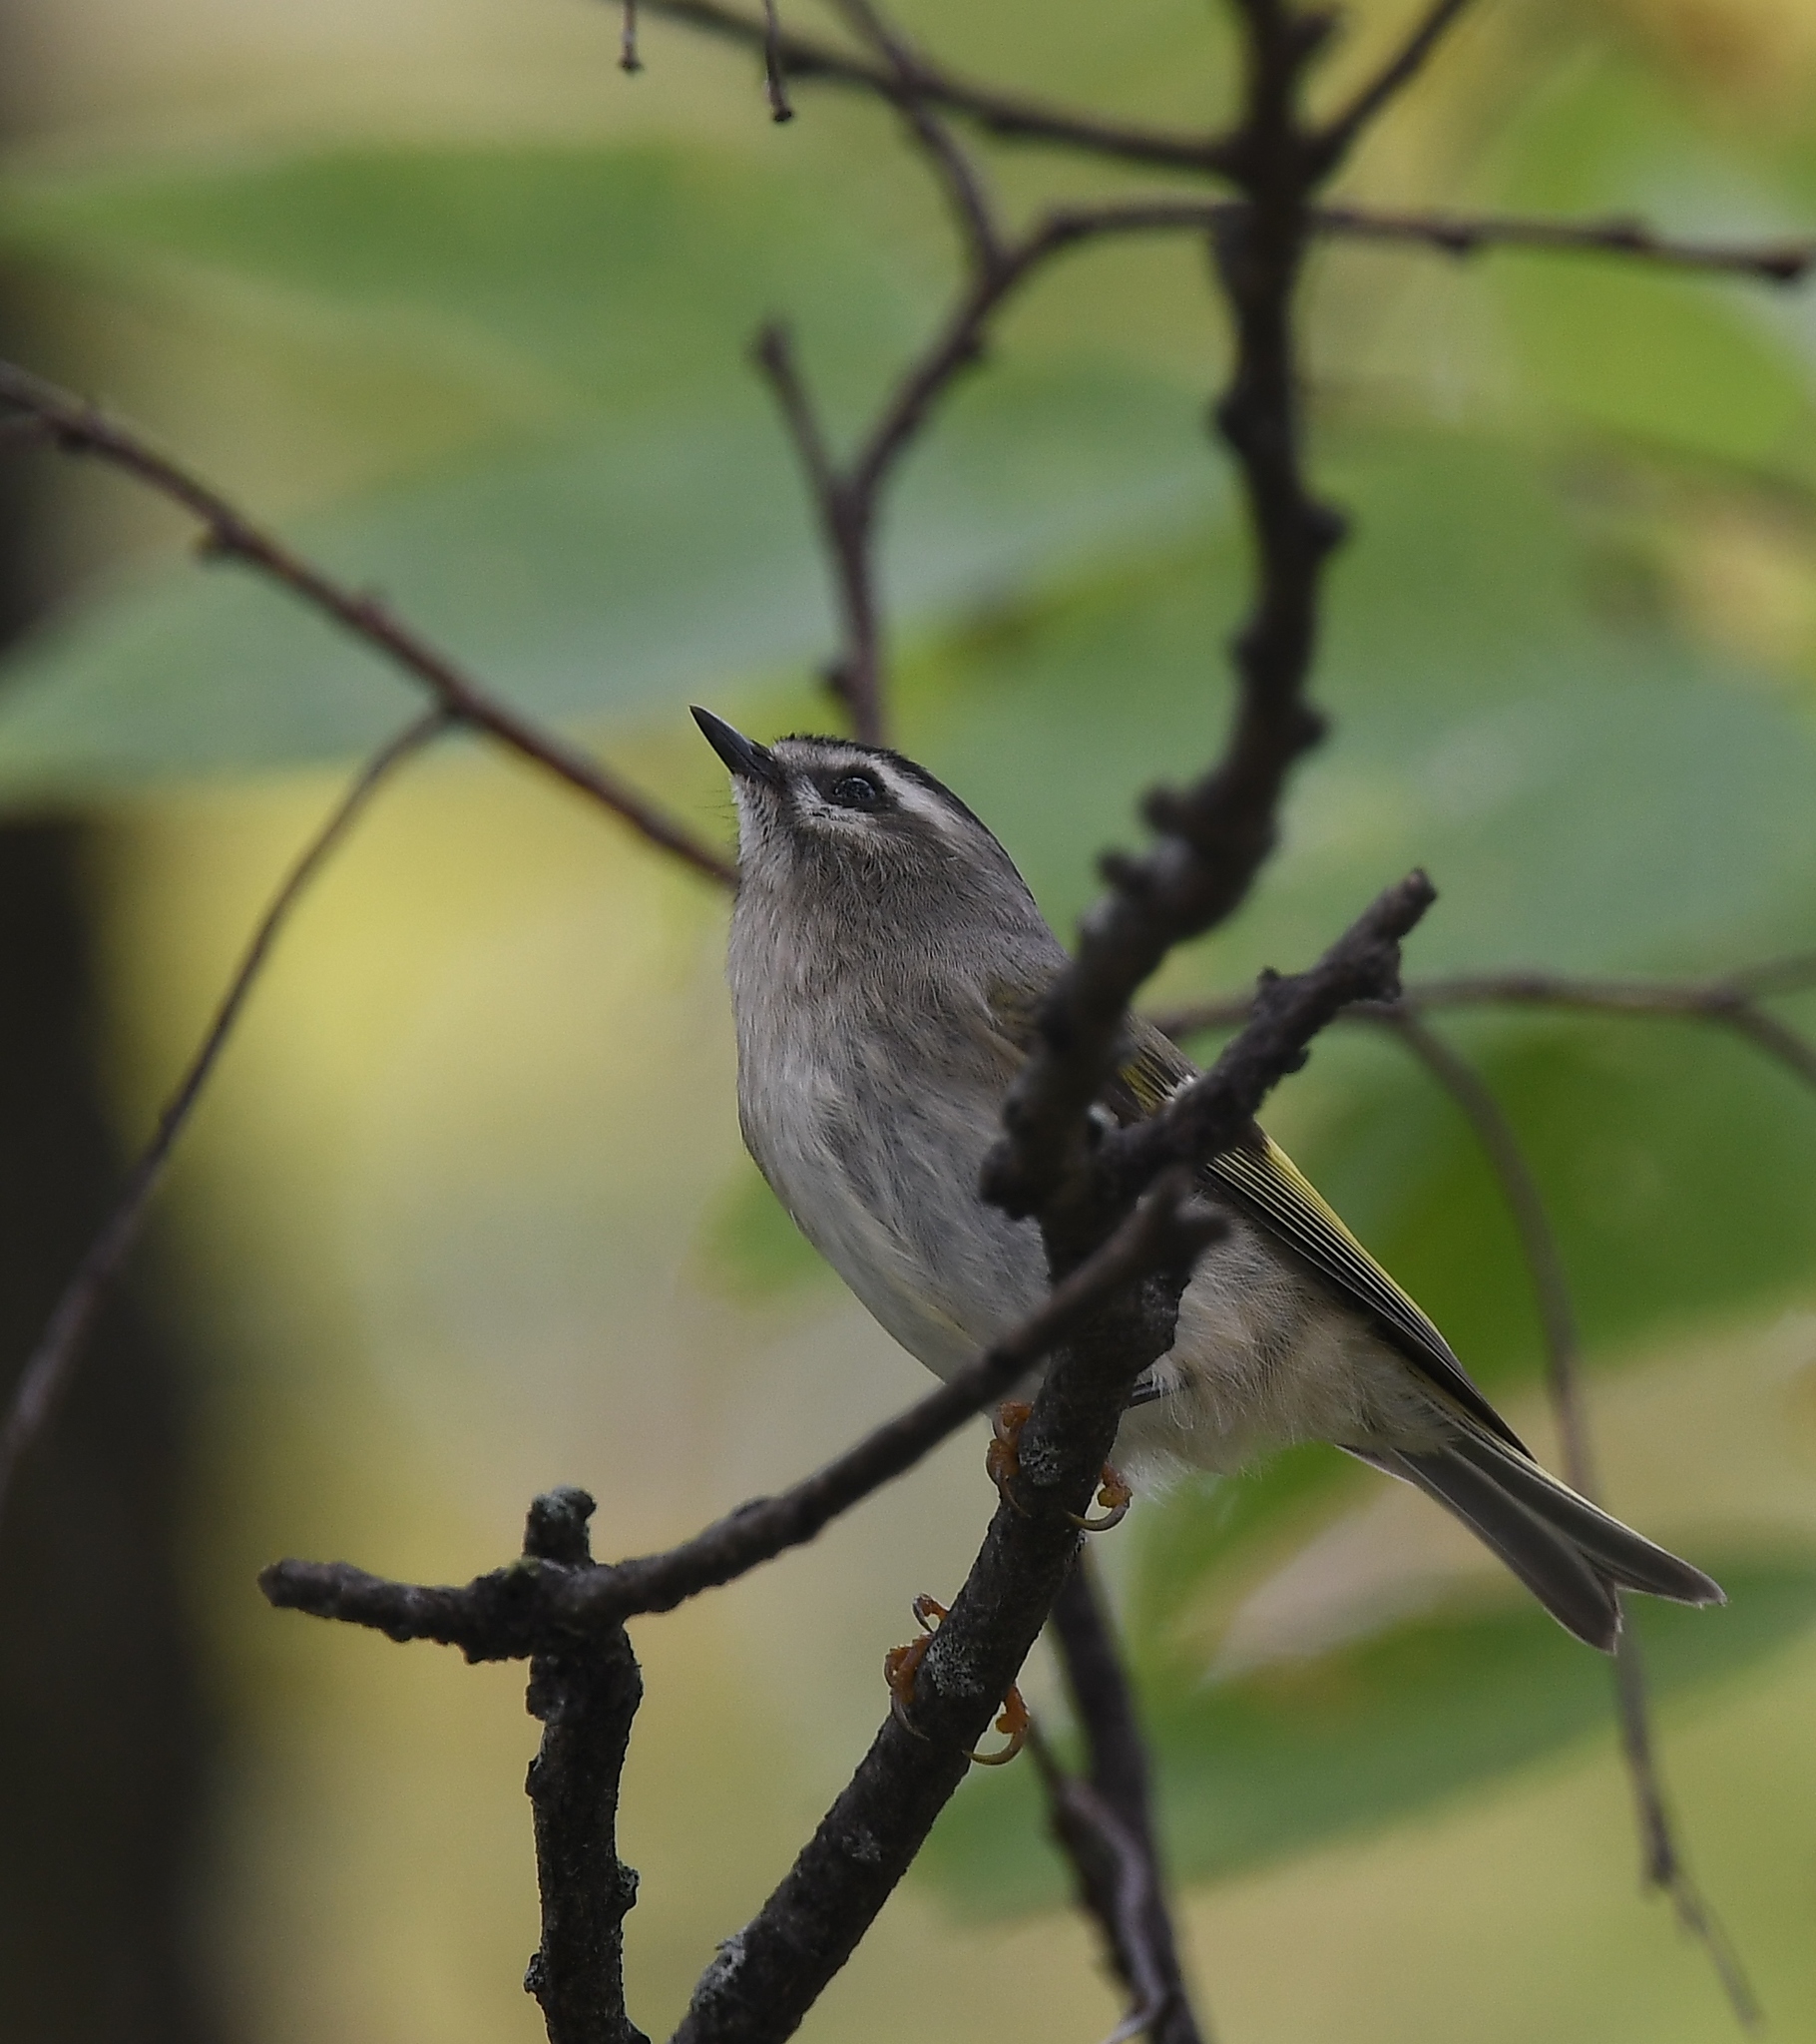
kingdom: Animalia
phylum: Chordata
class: Aves
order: Passeriformes
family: Regulidae
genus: Regulus
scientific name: Regulus satrapa
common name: Golden-crowned kinglet
